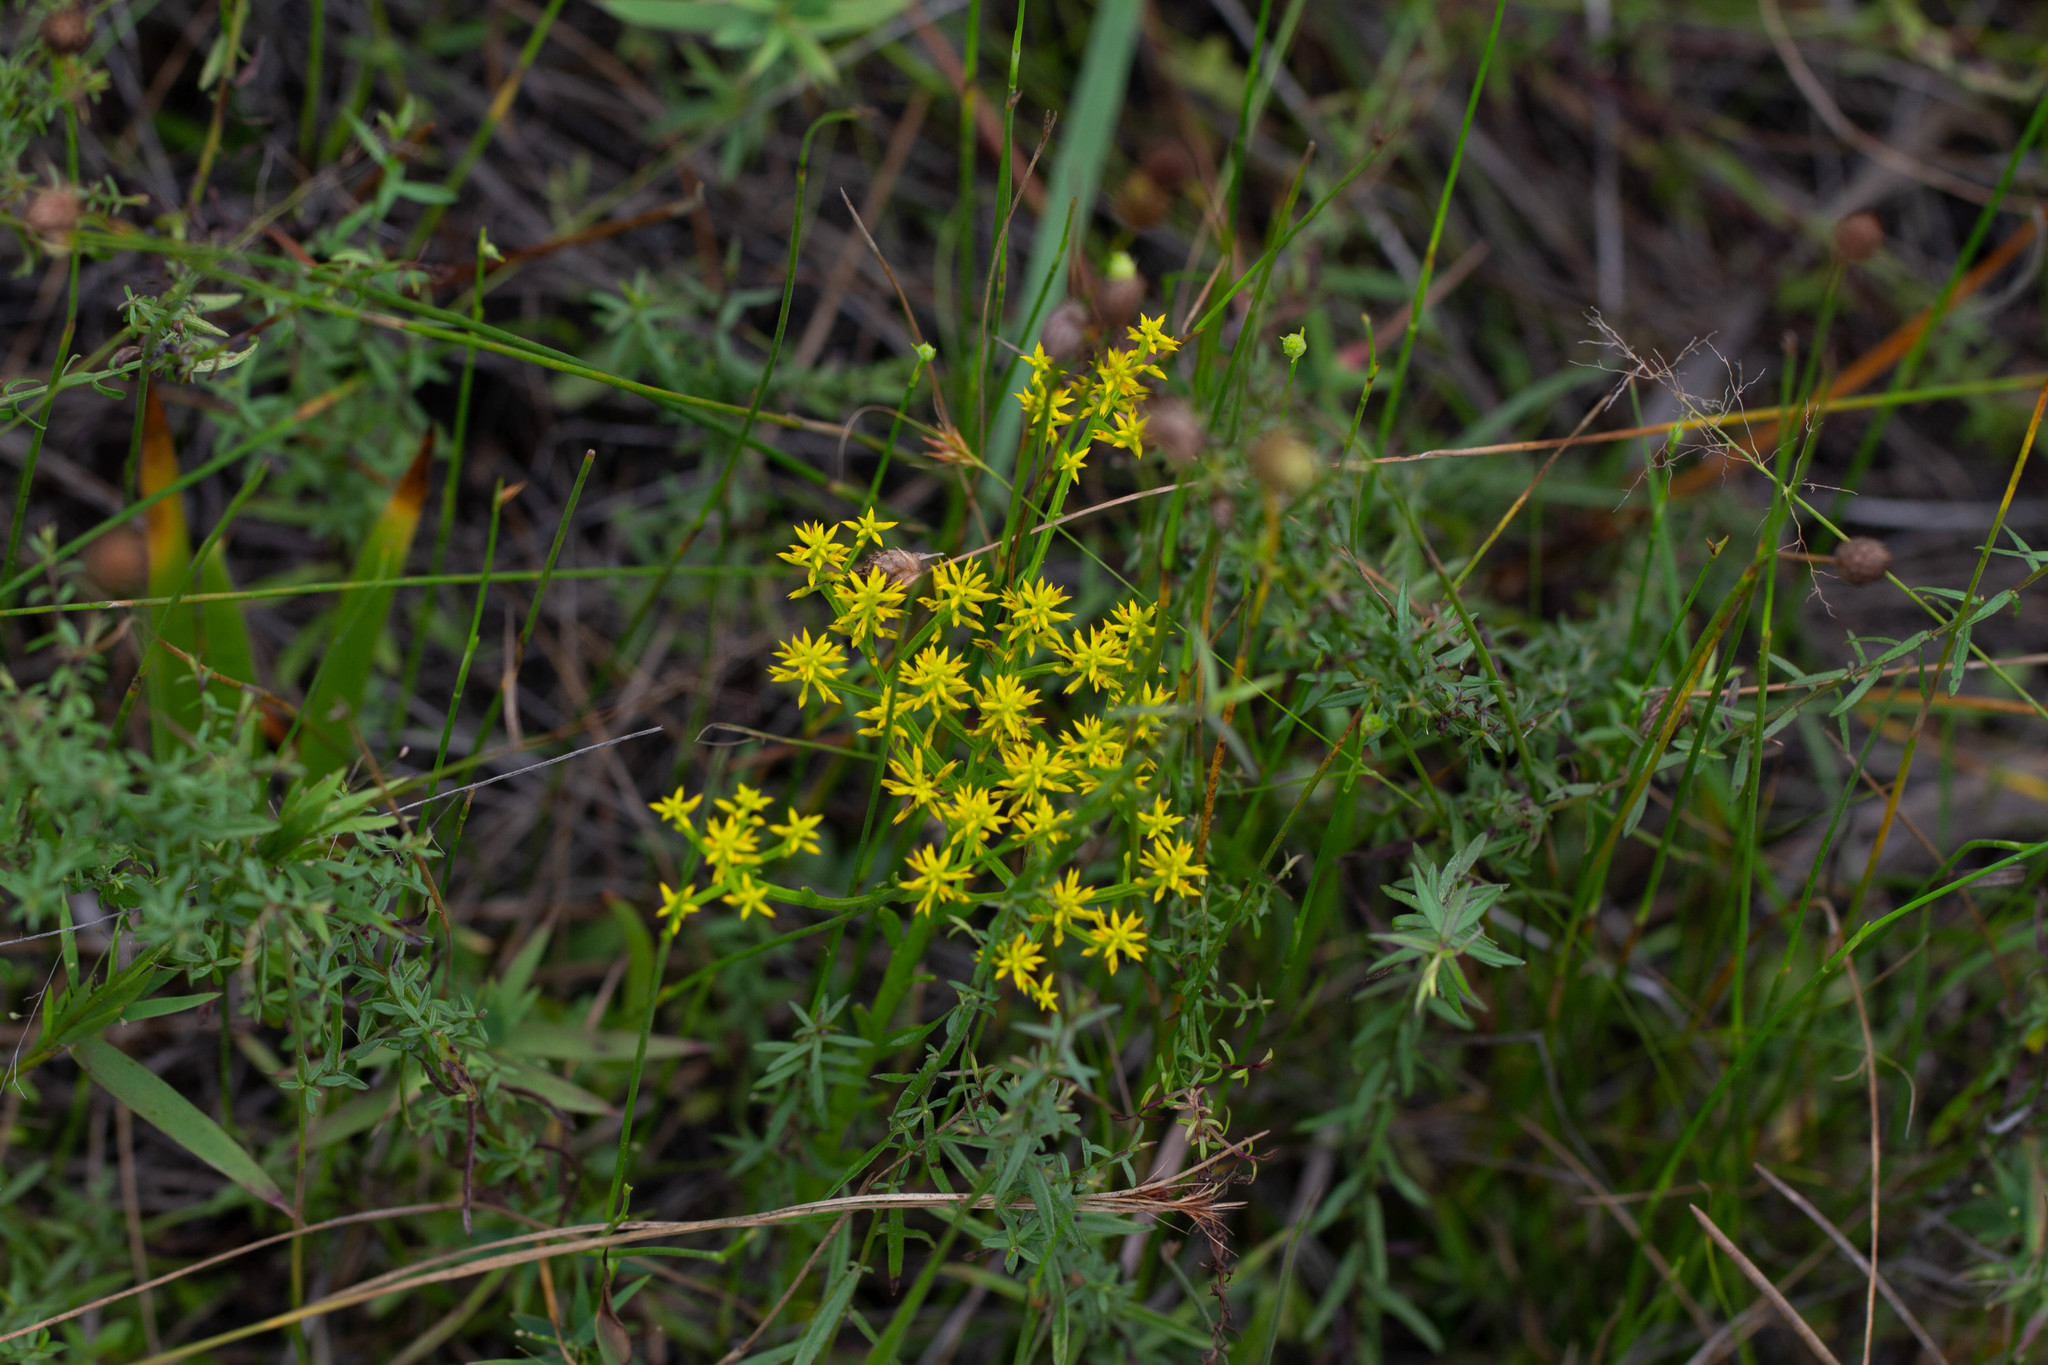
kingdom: Plantae
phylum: Tracheophyta
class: Magnoliopsida
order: Fabales
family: Polygalaceae
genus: Polygala
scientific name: Polygala ramosa
